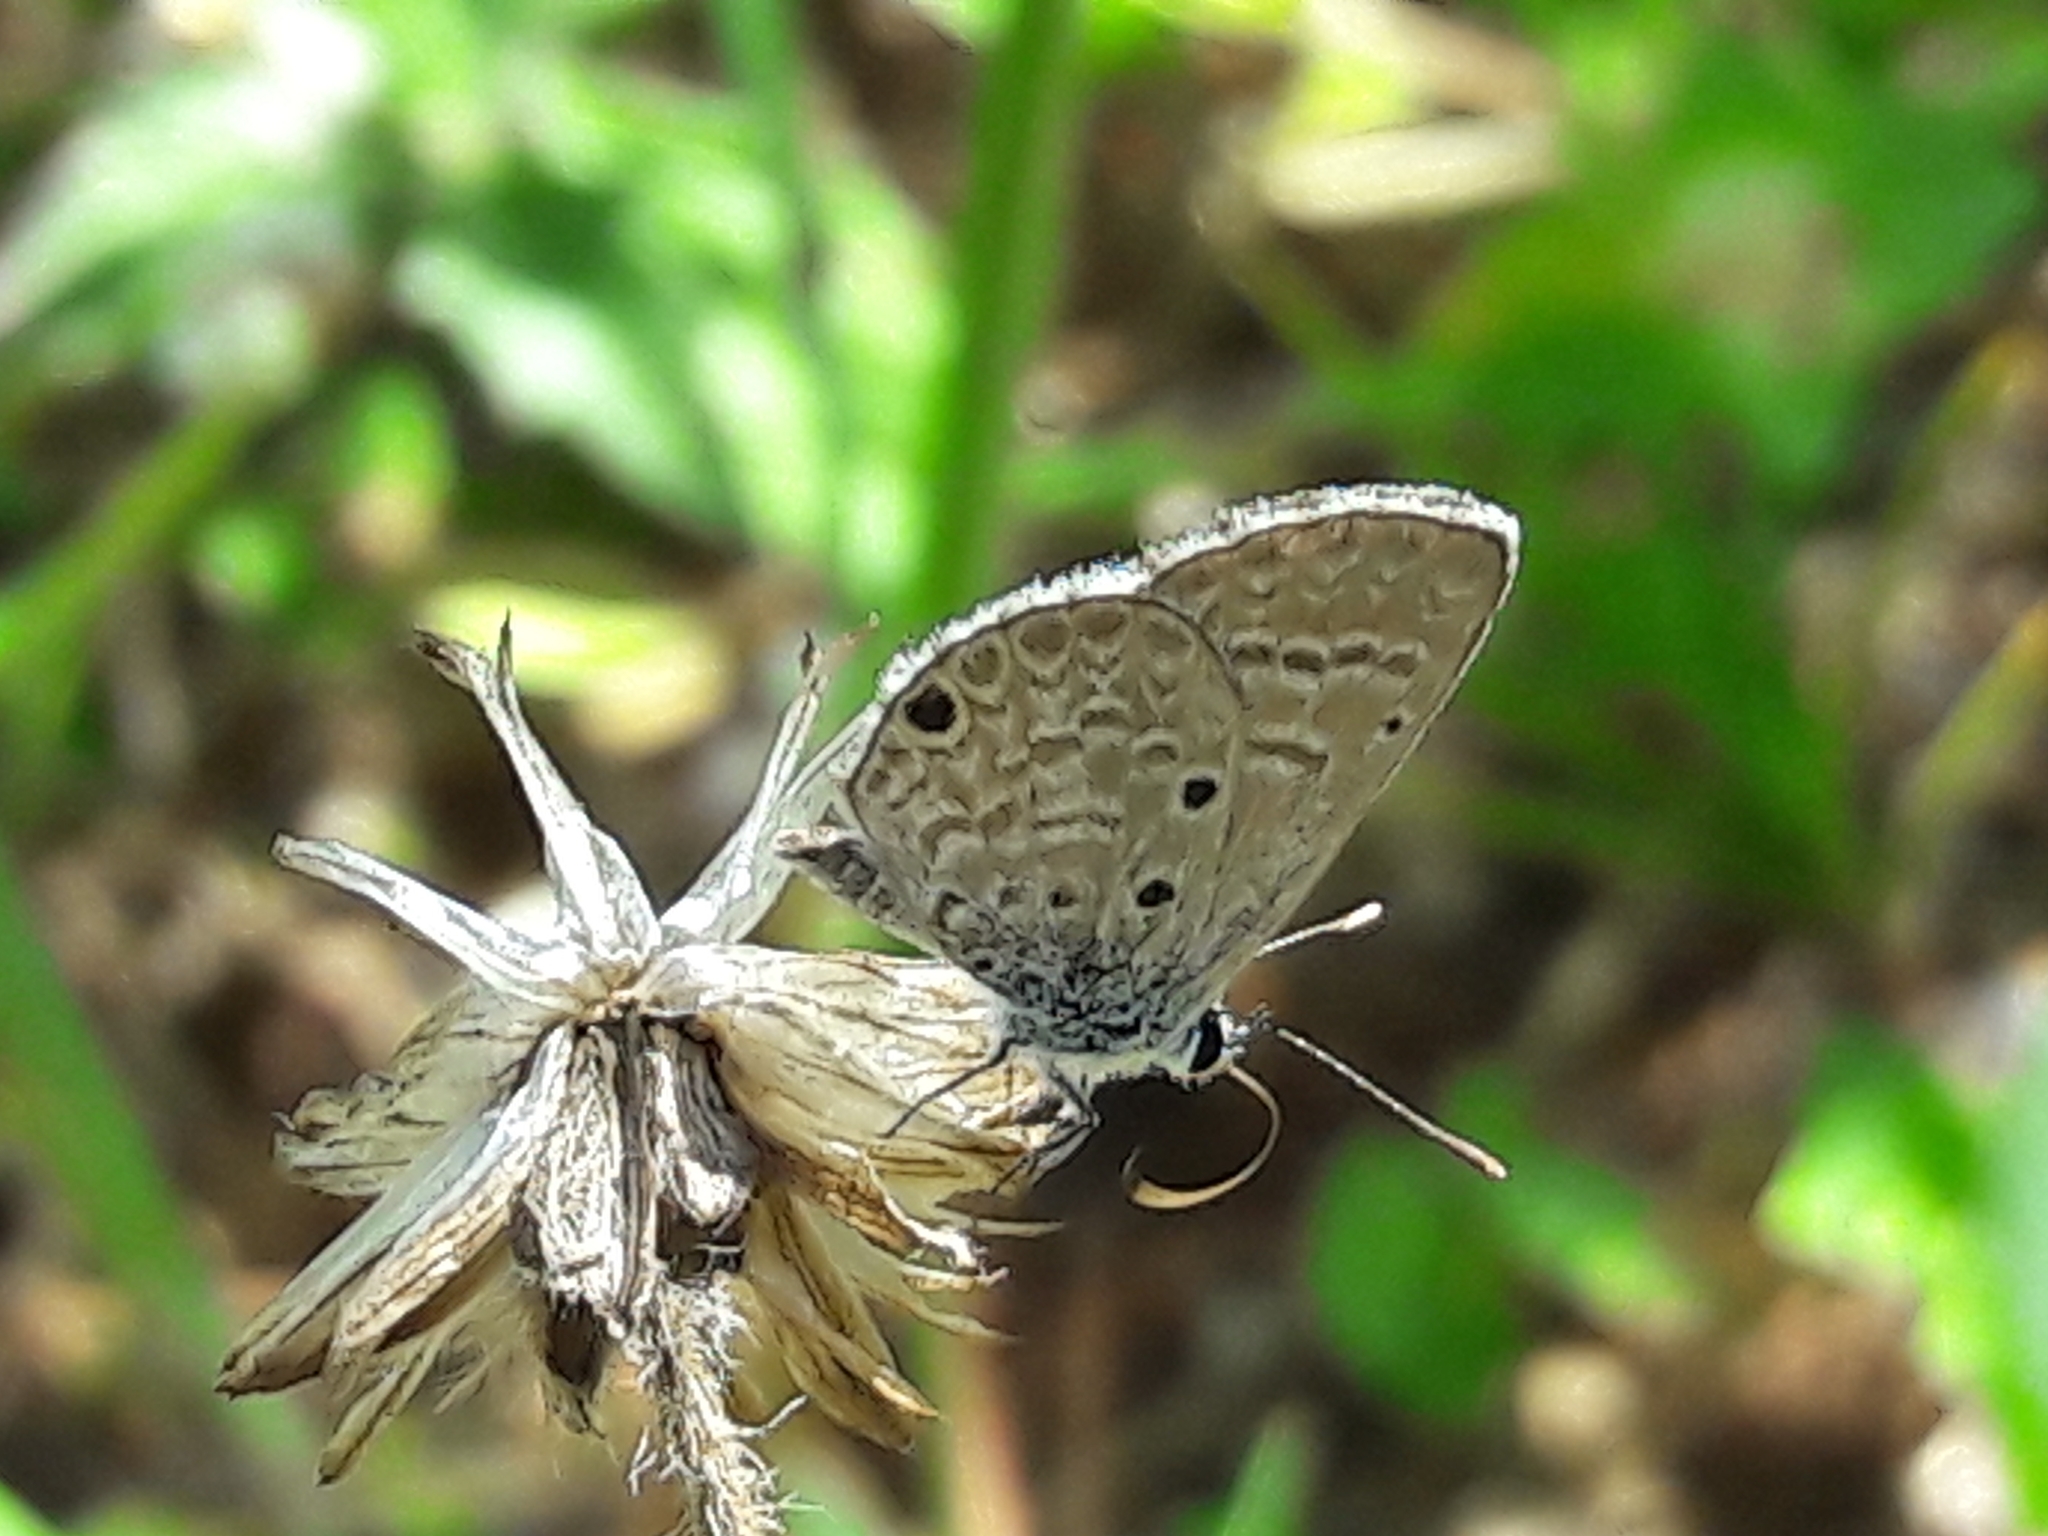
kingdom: Animalia
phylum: Arthropoda
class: Insecta
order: Lepidoptera
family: Lycaenidae
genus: Hemiargus
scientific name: Hemiargus hanno
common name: Common blue
